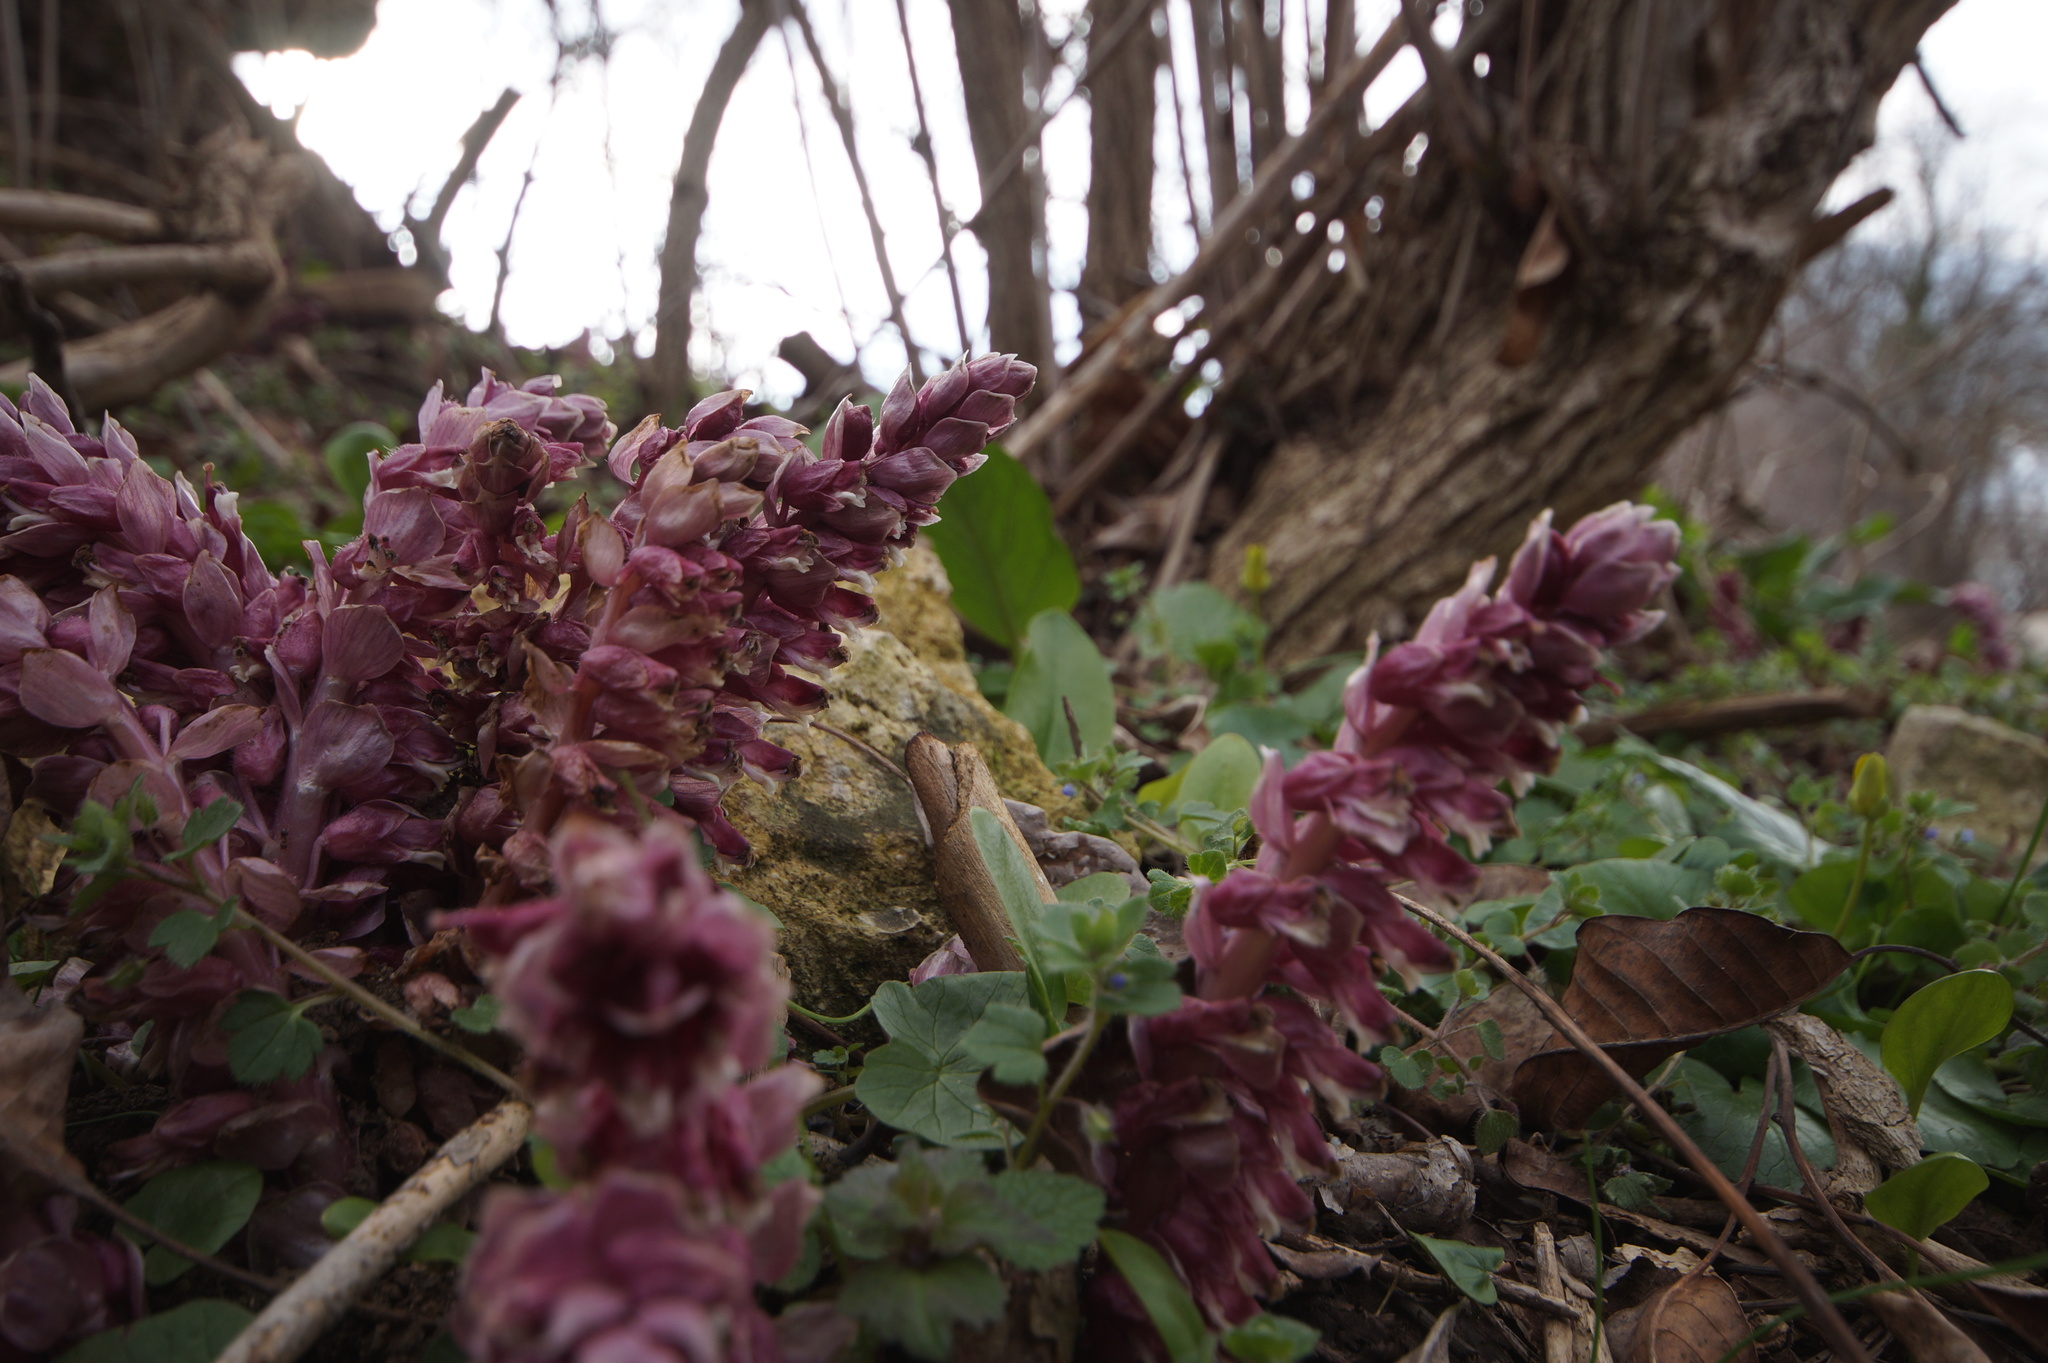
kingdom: Plantae
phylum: Tracheophyta
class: Magnoliopsida
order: Lamiales
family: Orobanchaceae
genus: Lathraea
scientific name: Lathraea squamaria
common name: Toothwort
